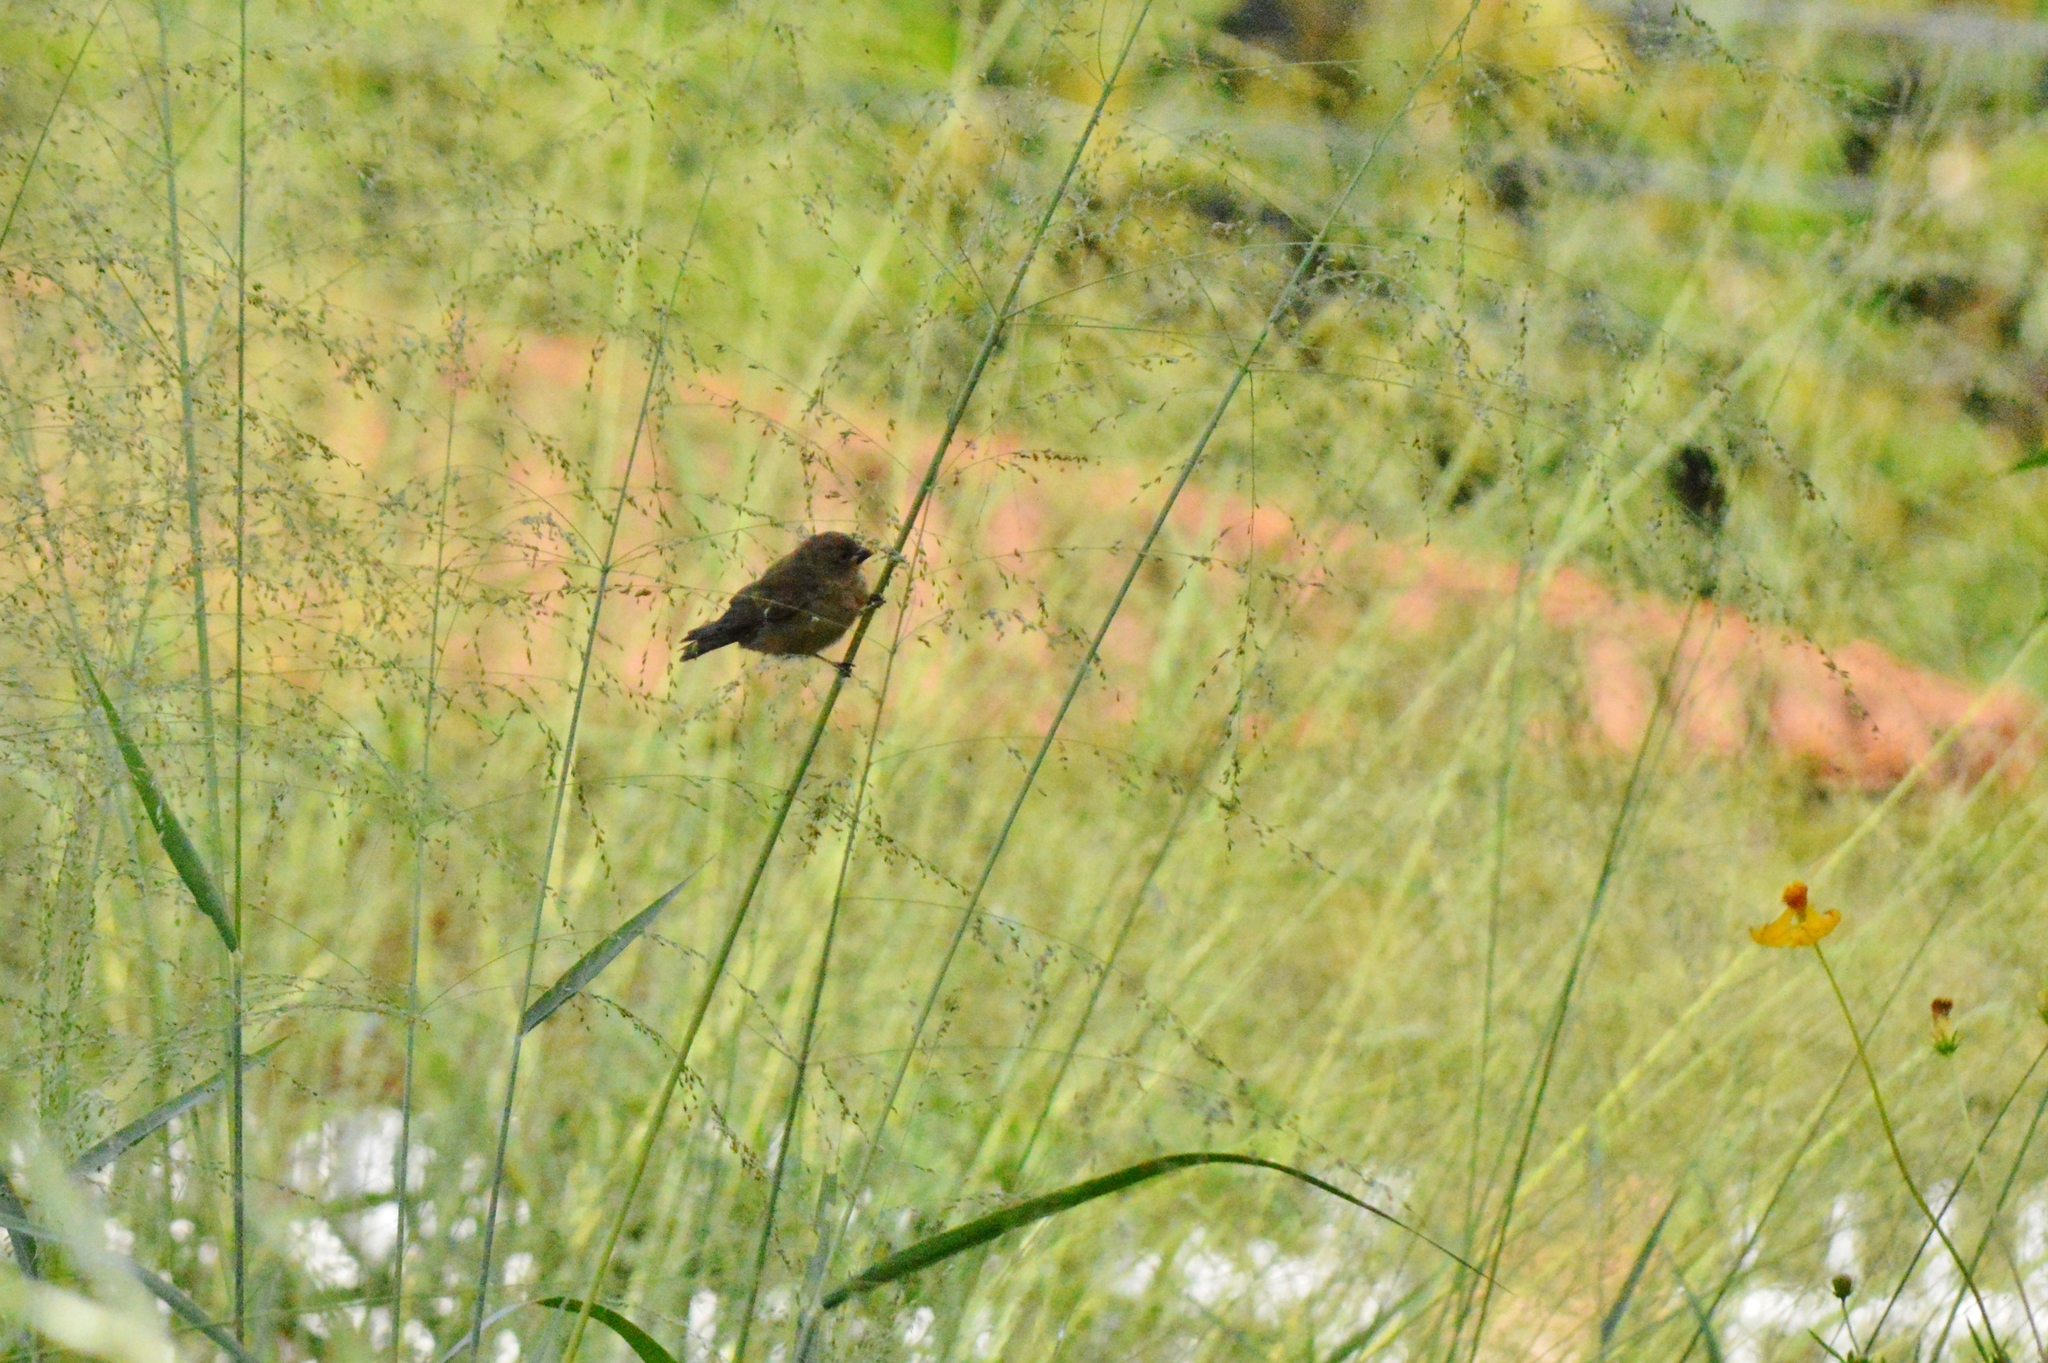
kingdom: Animalia
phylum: Chordata
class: Aves
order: Passeriformes
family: Thraupidae
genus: Sporophila
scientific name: Sporophila nigricollis
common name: Yellow-bellied seedeater
